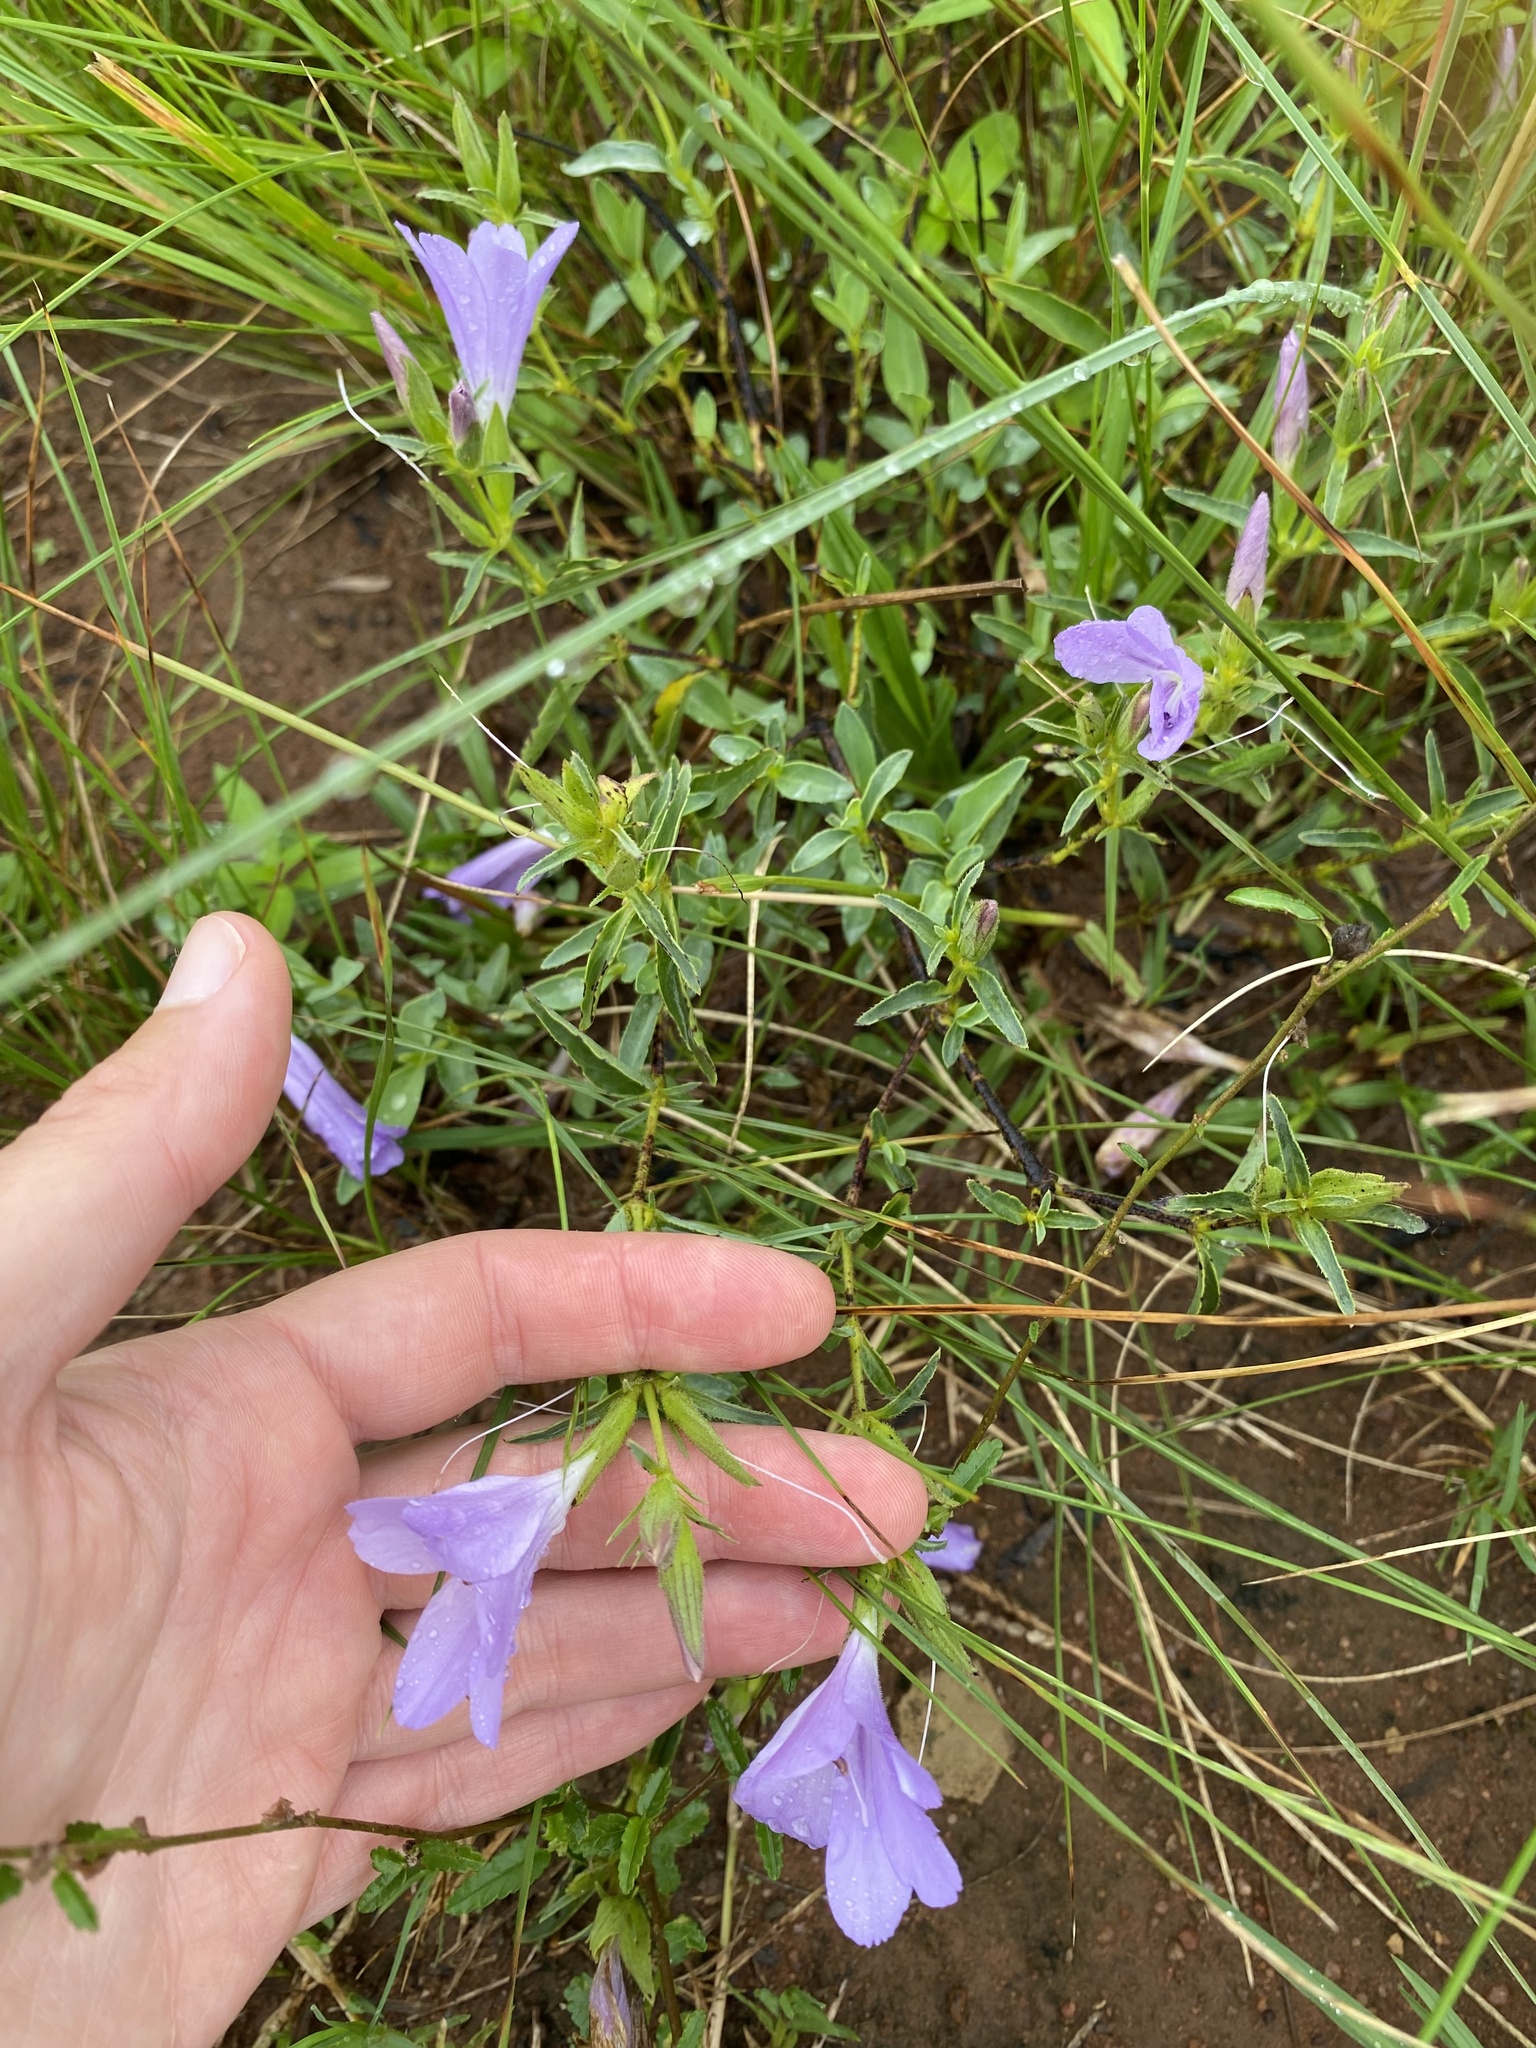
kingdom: Plantae
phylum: Tracheophyta
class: Magnoliopsida
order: Lamiales
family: Acanthaceae
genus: Barleria
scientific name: Barleria meyeriana
